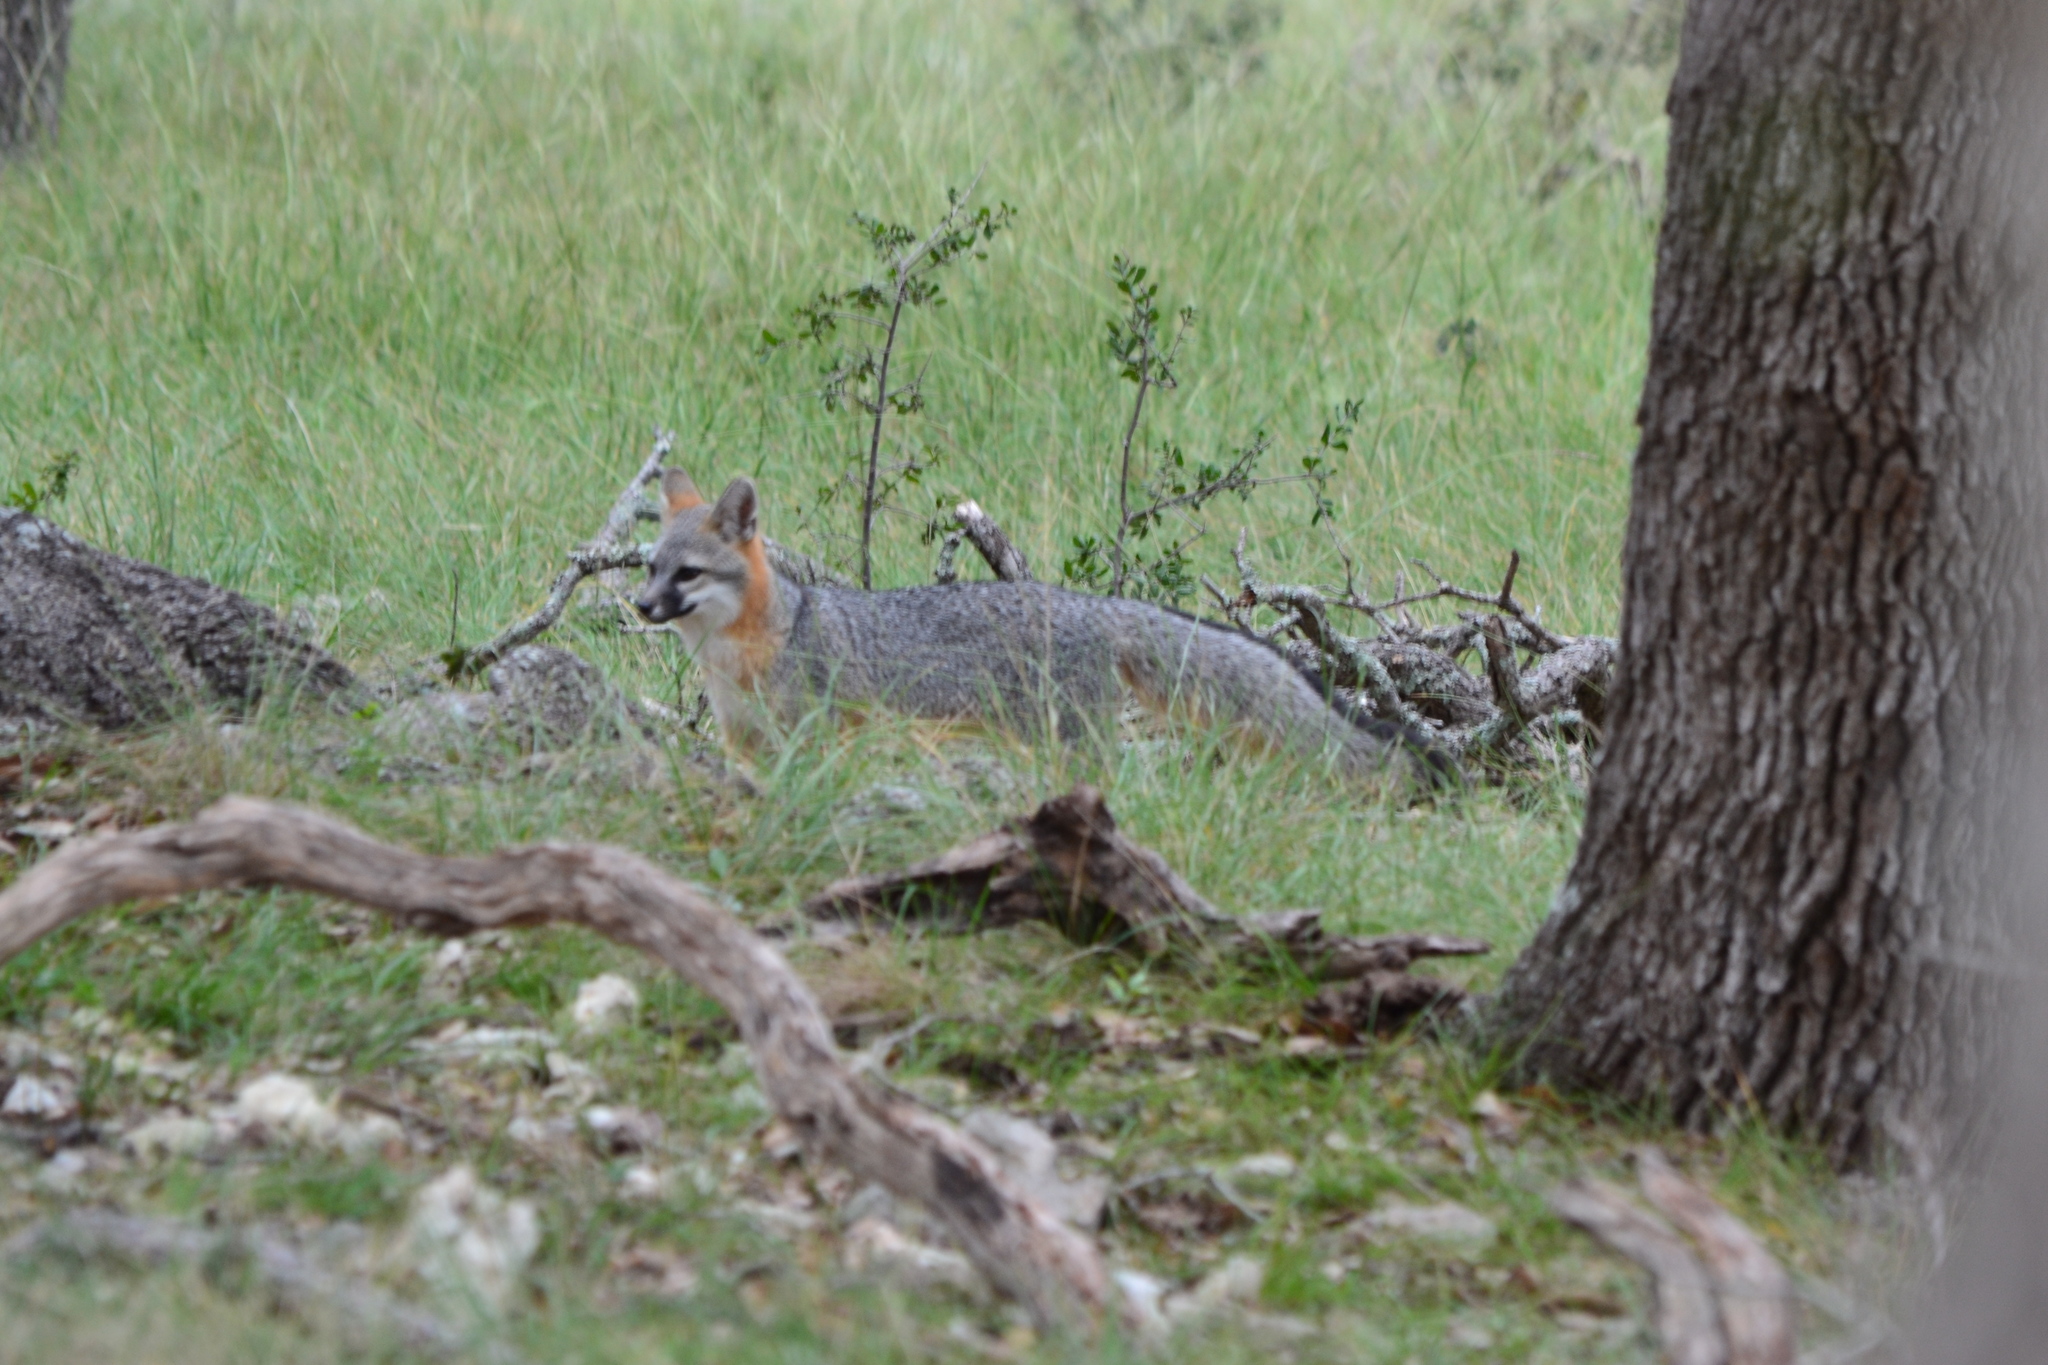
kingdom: Animalia
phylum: Chordata
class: Mammalia
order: Carnivora
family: Canidae
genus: Urocyon
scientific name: Urocyon cinereoargenteus
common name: Gray fox
